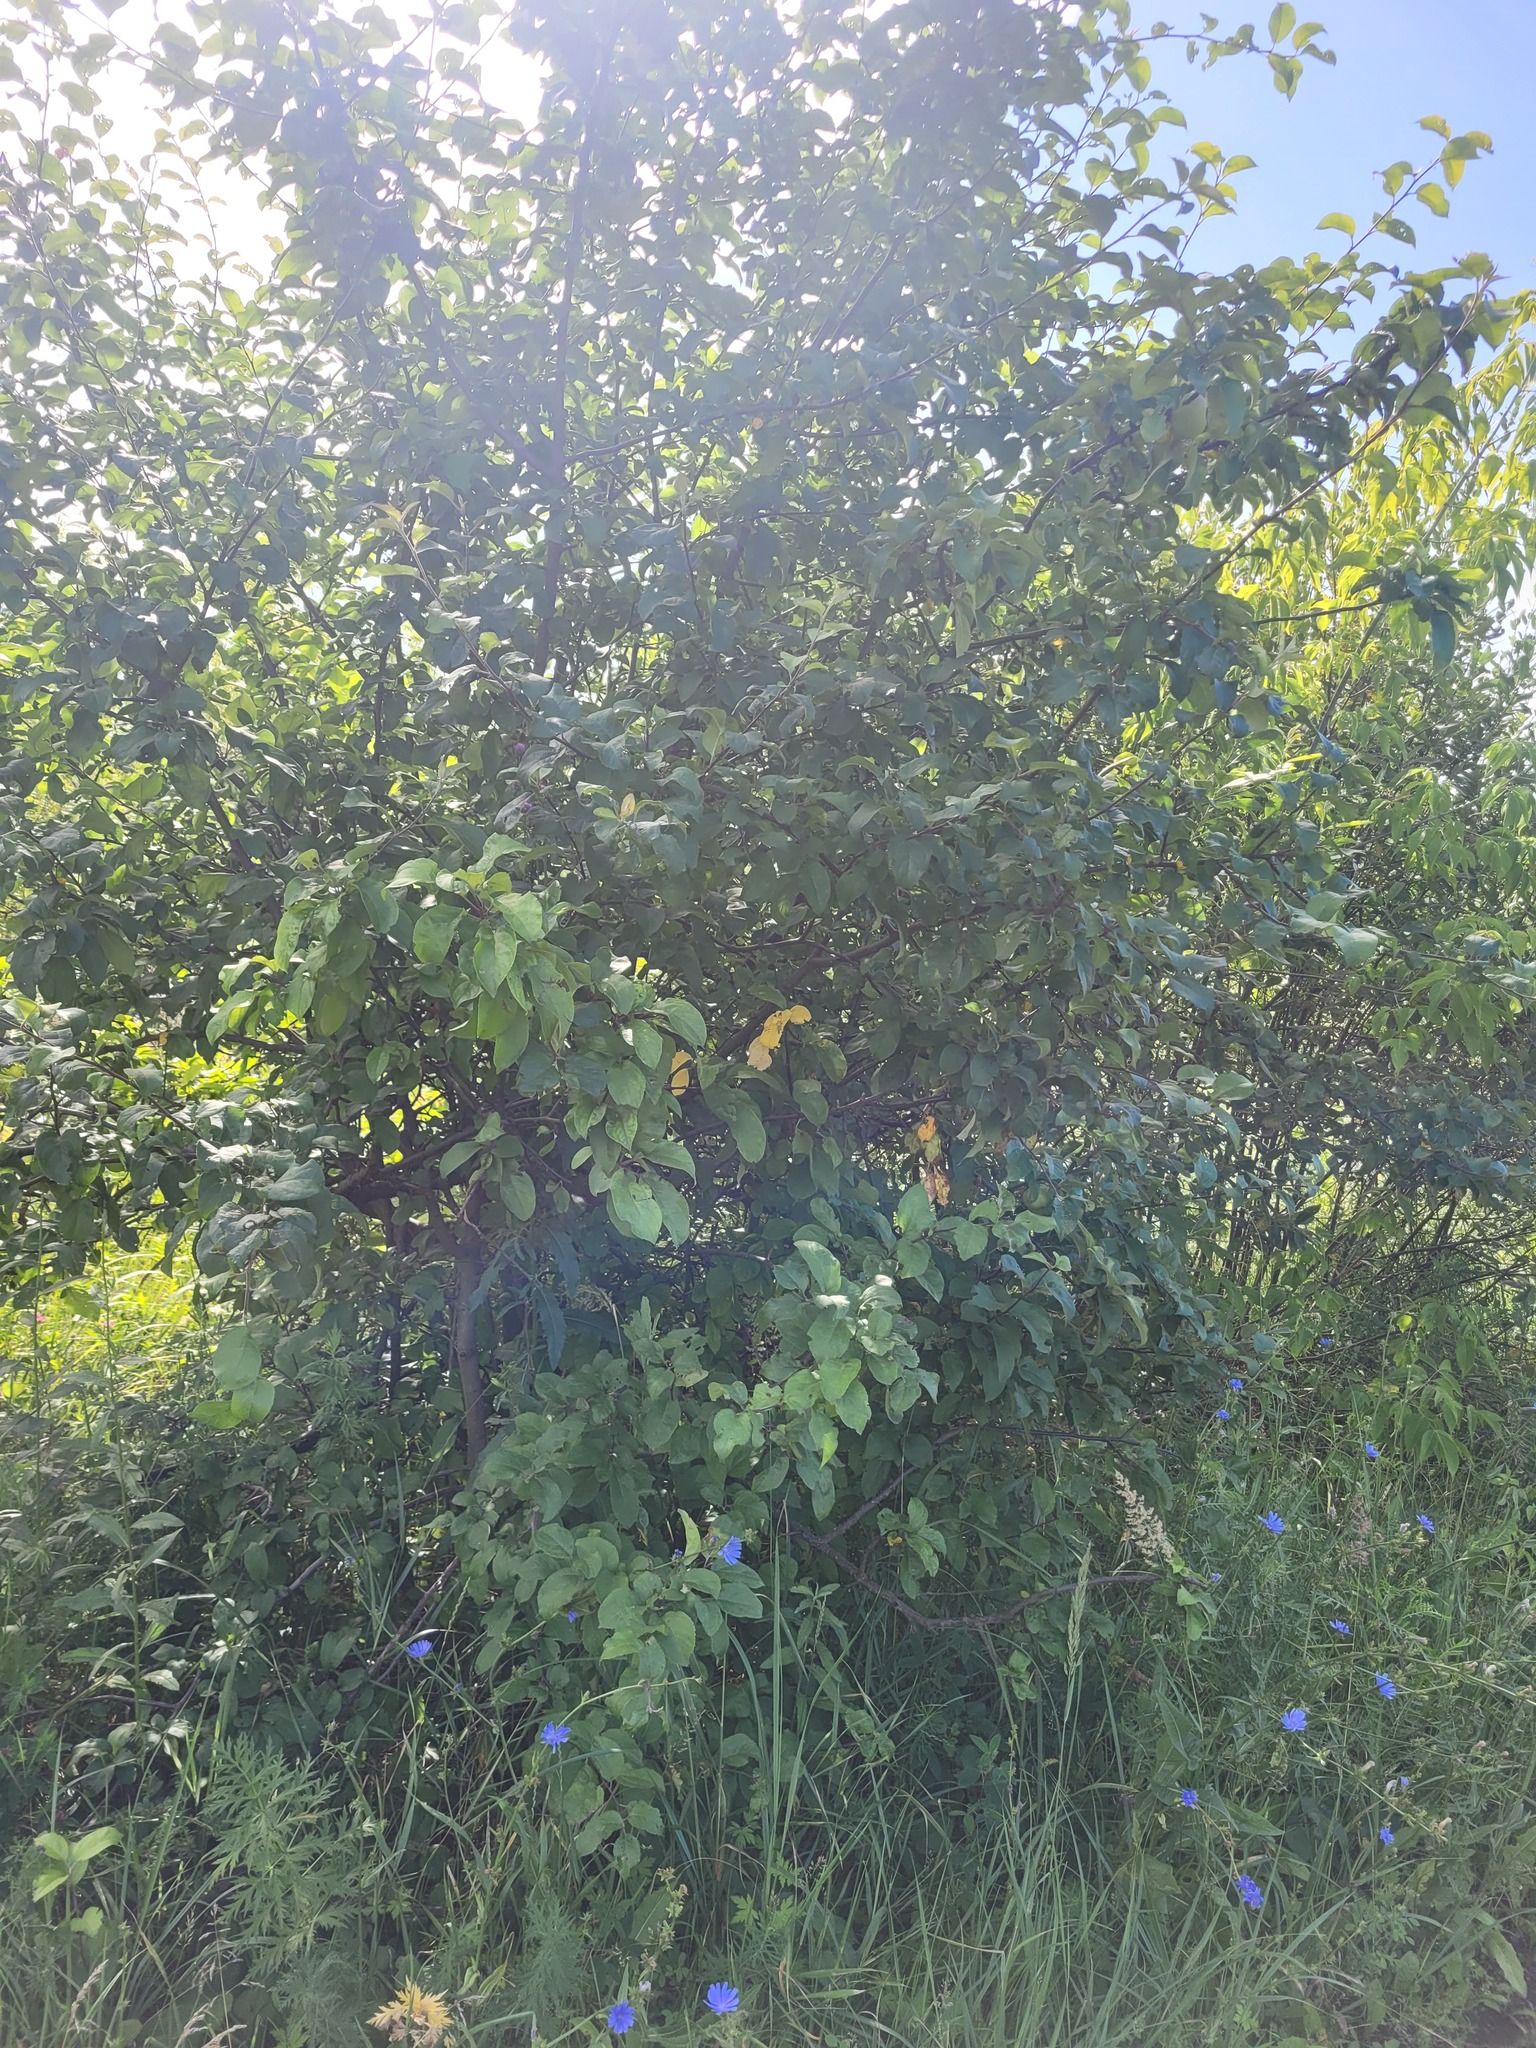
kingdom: Plantae
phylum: Tracheophyta
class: Magnoliopsida
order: Rosales
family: Rosaceae
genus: Malus
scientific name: Malus domestica
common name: Apple
